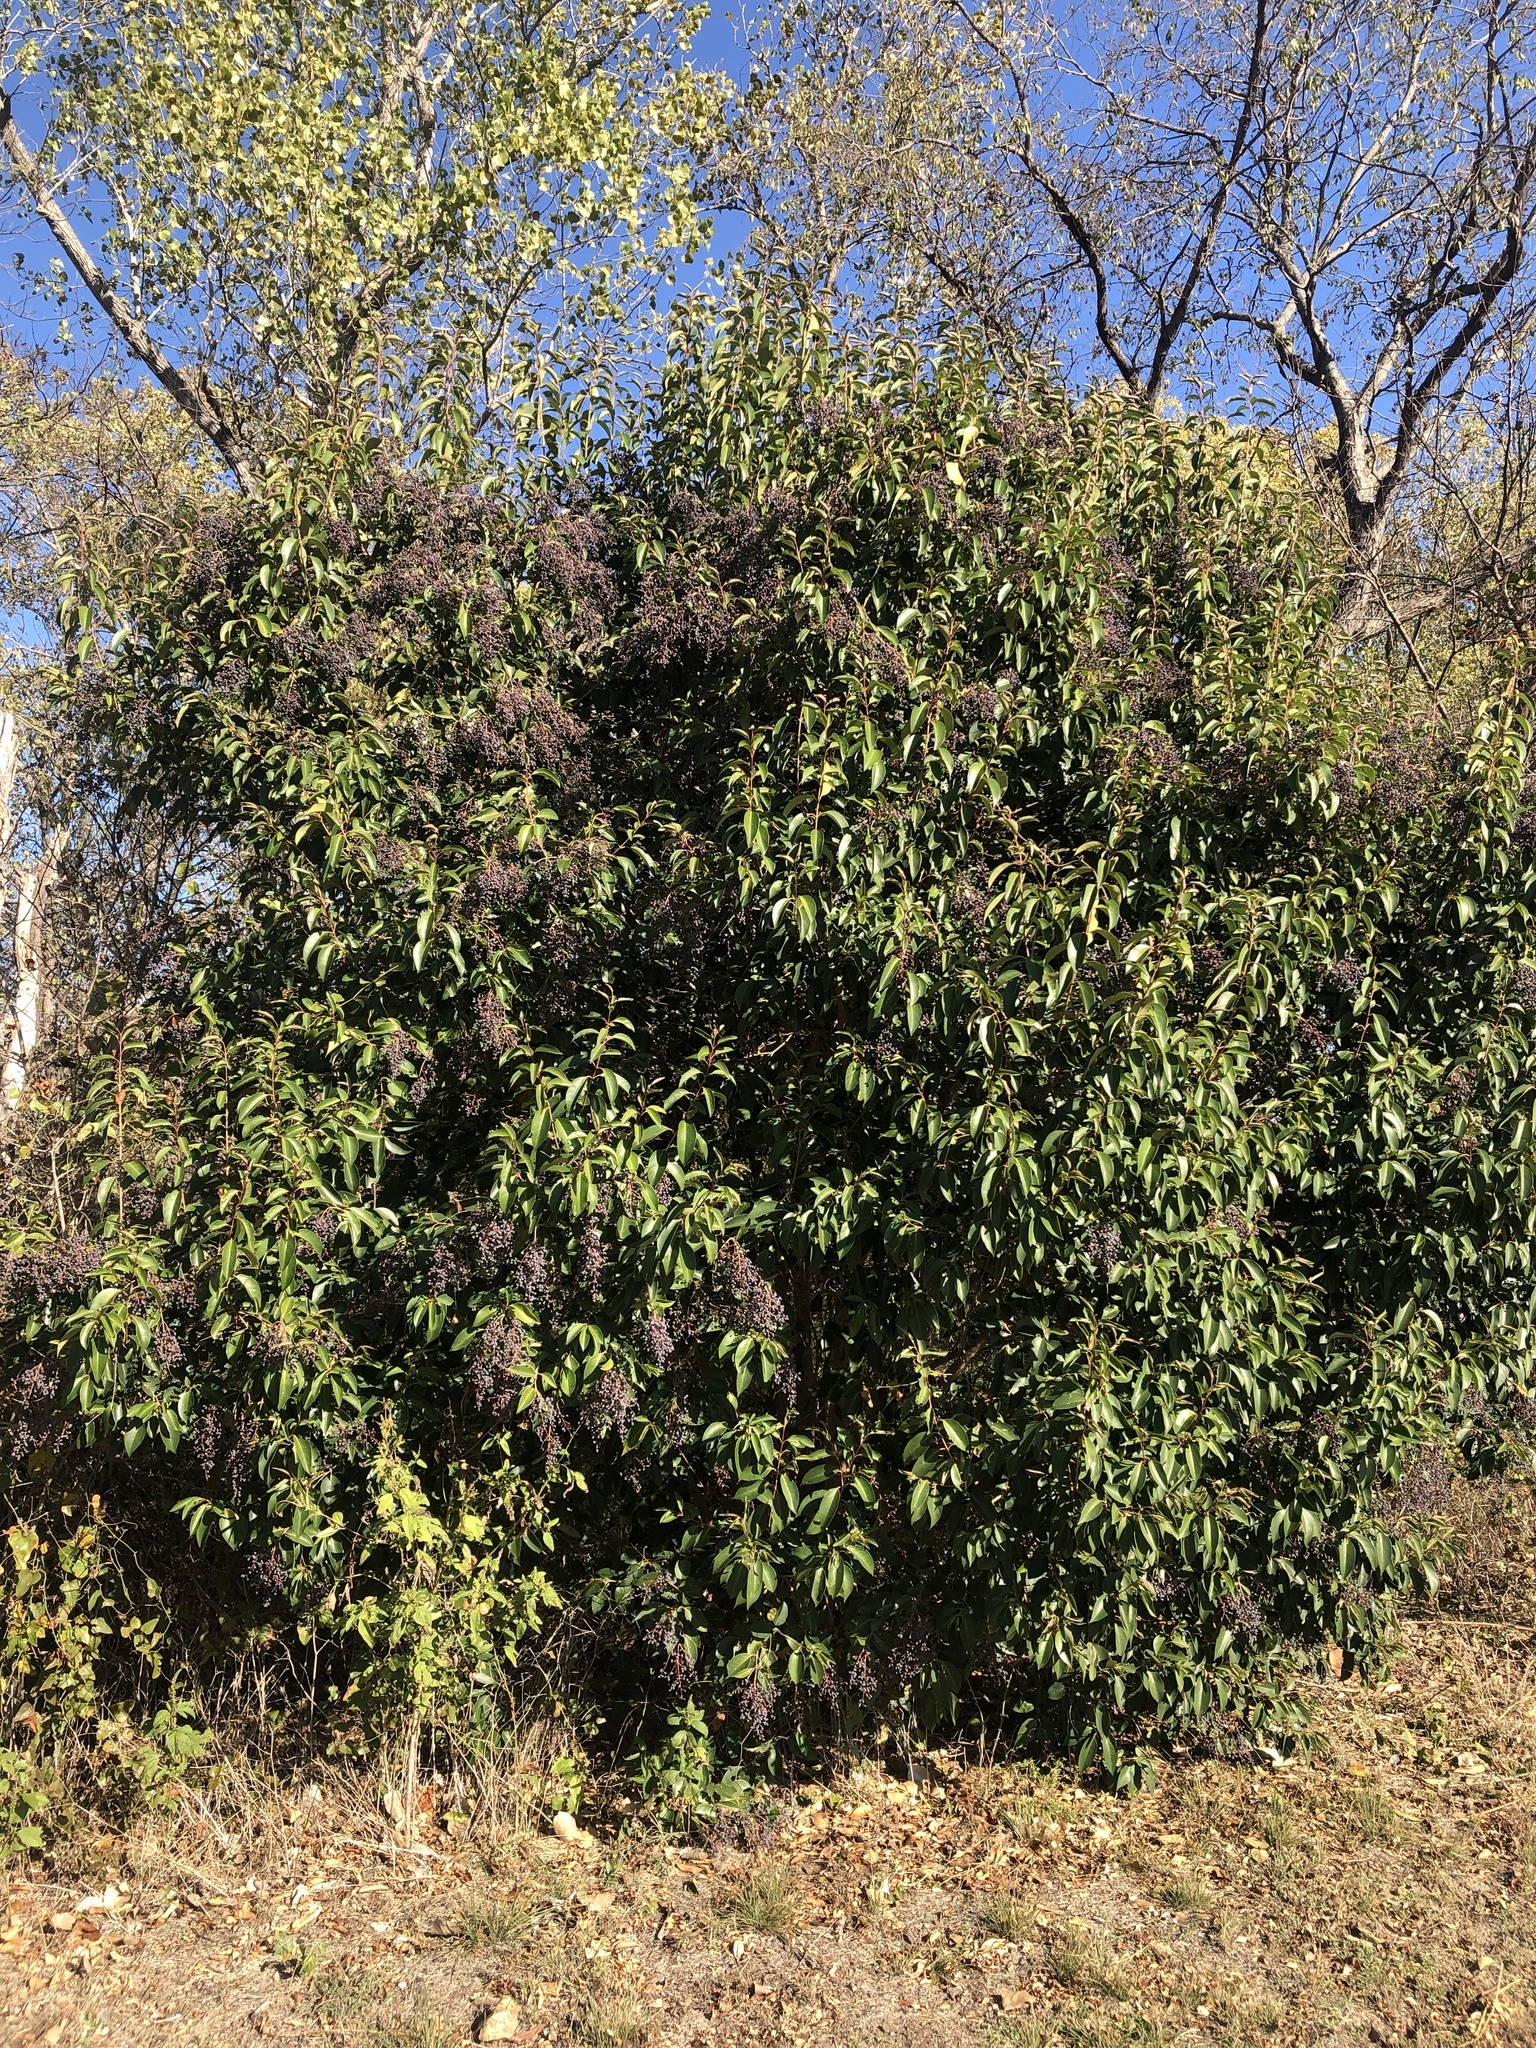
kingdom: Plantae
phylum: Tracheophyta
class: Magnoliopsida
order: Lamiales
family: Oleaceae
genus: Ligustrum
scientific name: Ligustrum lucidum
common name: Glossy privet
